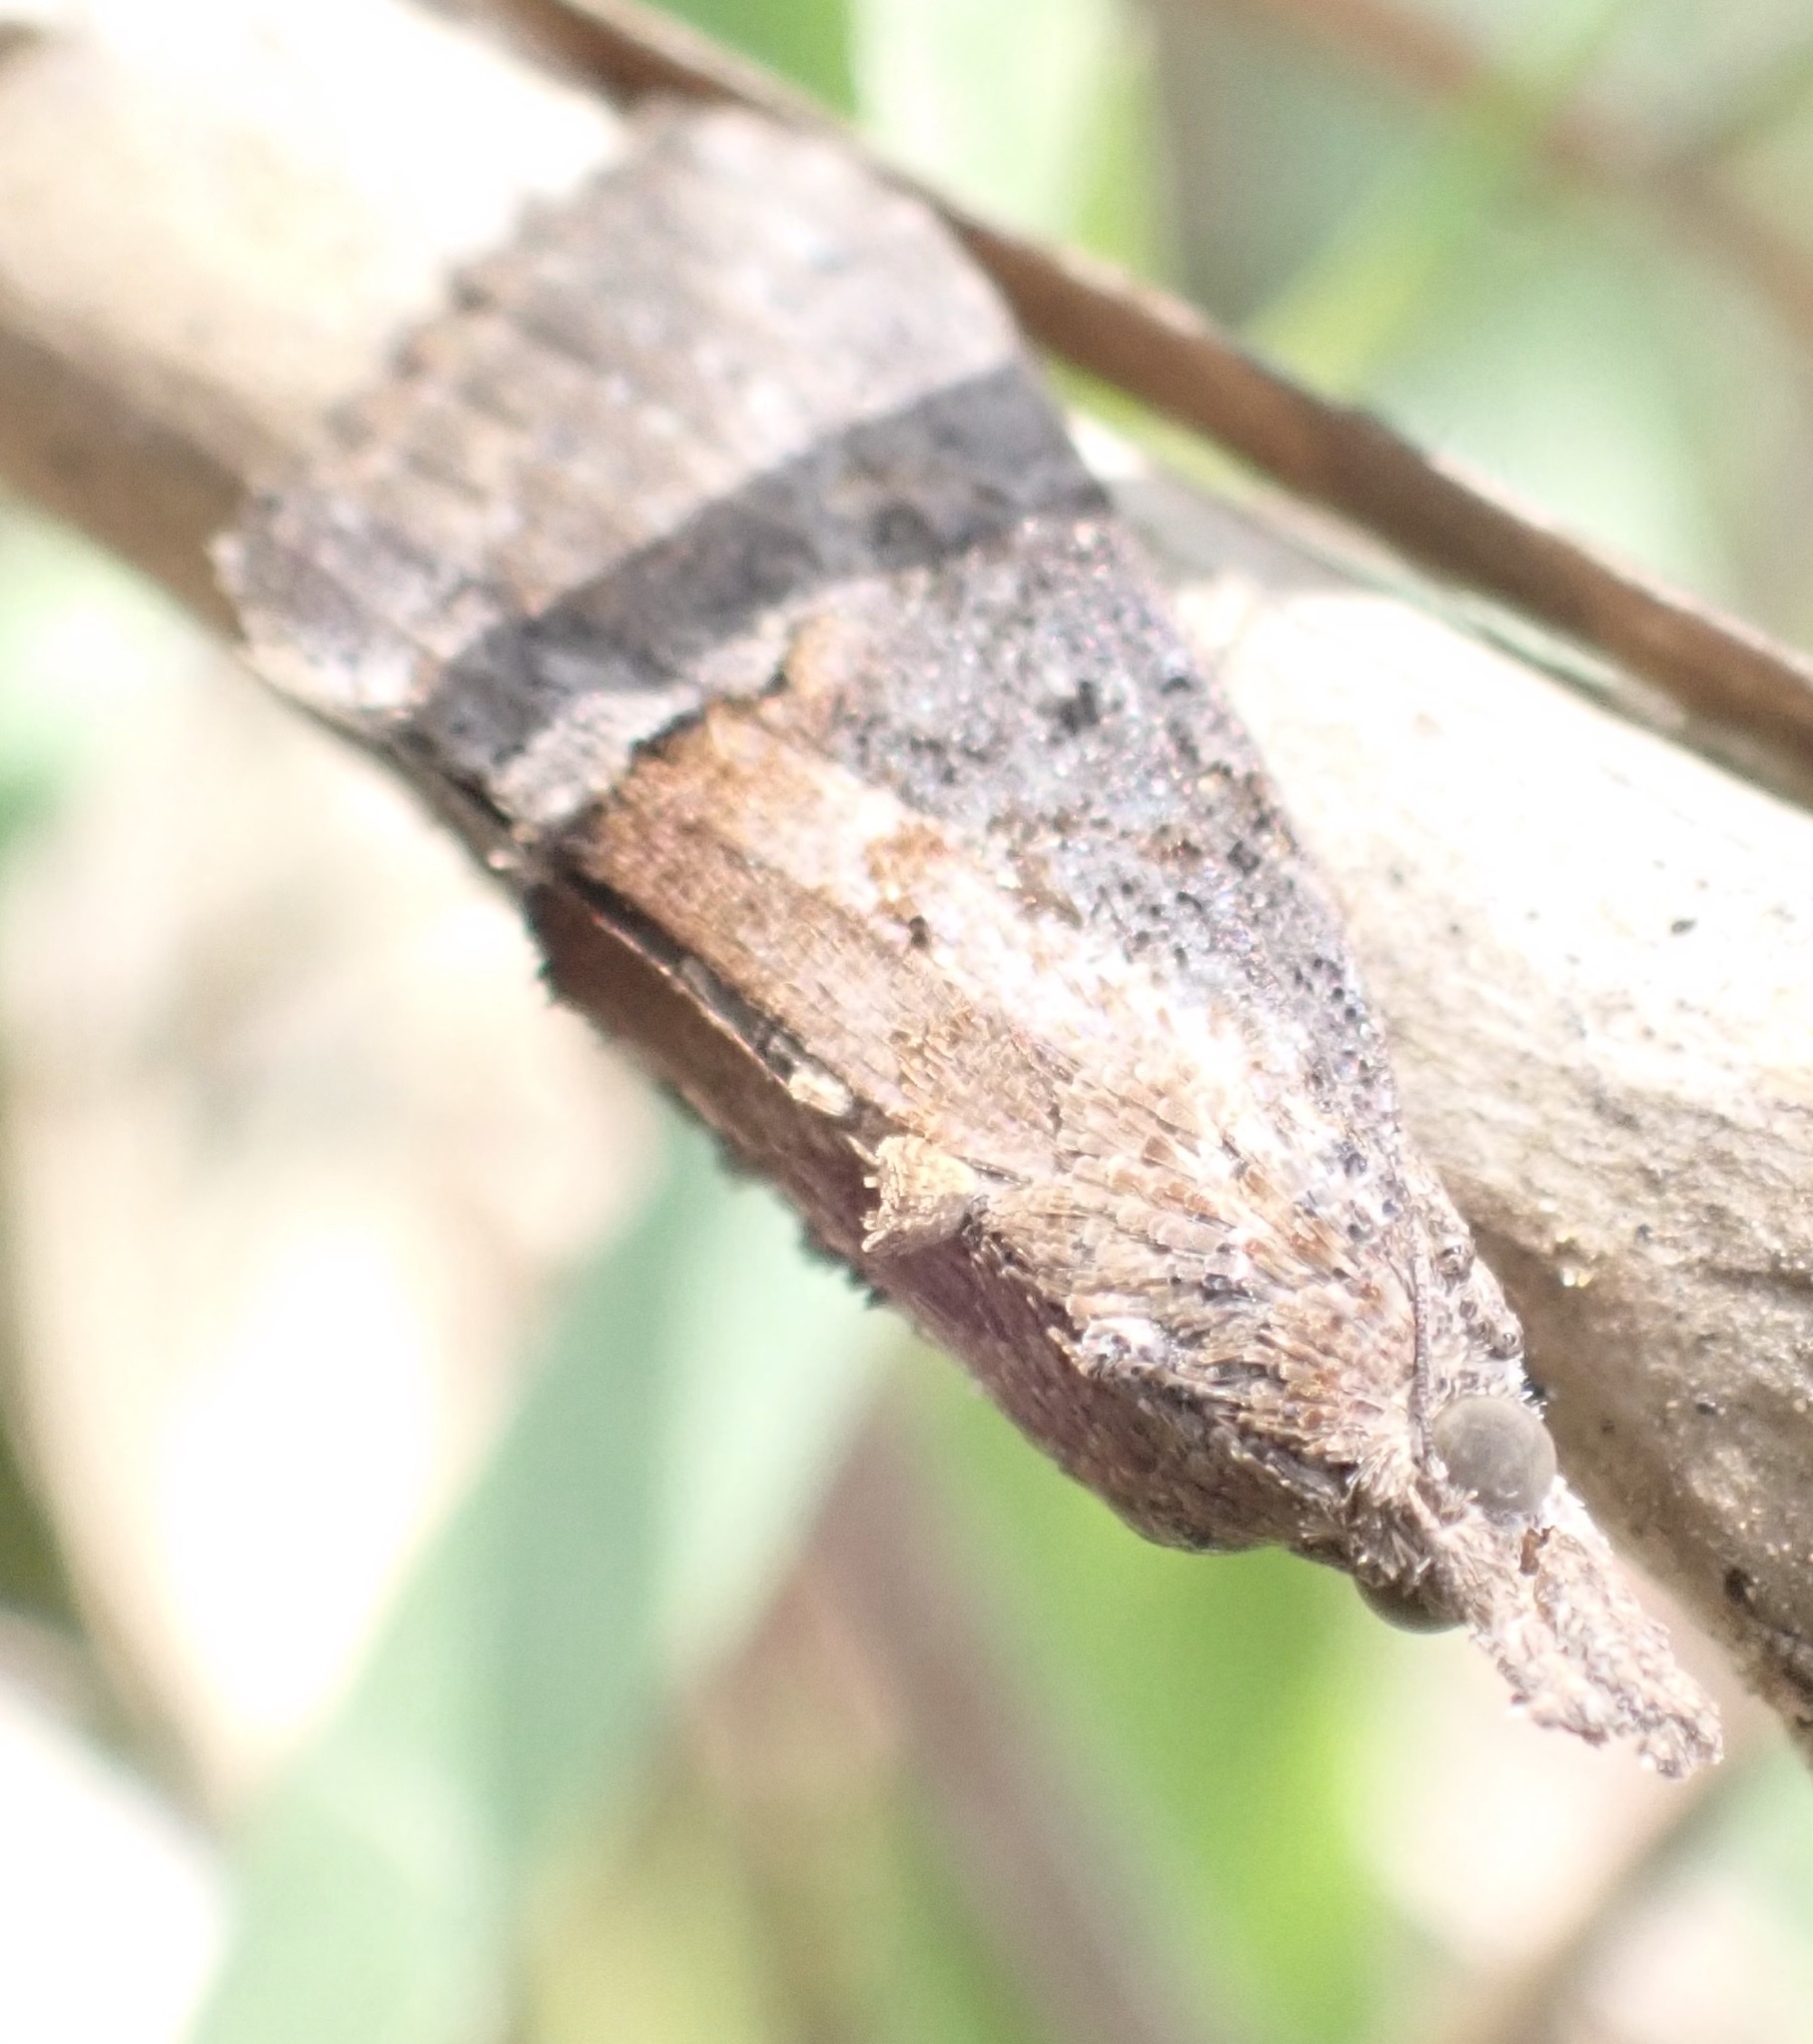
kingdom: Animalia
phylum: Arthropoda
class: Insecta
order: Lepidoptera
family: Erebidae
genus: Hypena
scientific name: Hypena scabra
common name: Green cloverworm
